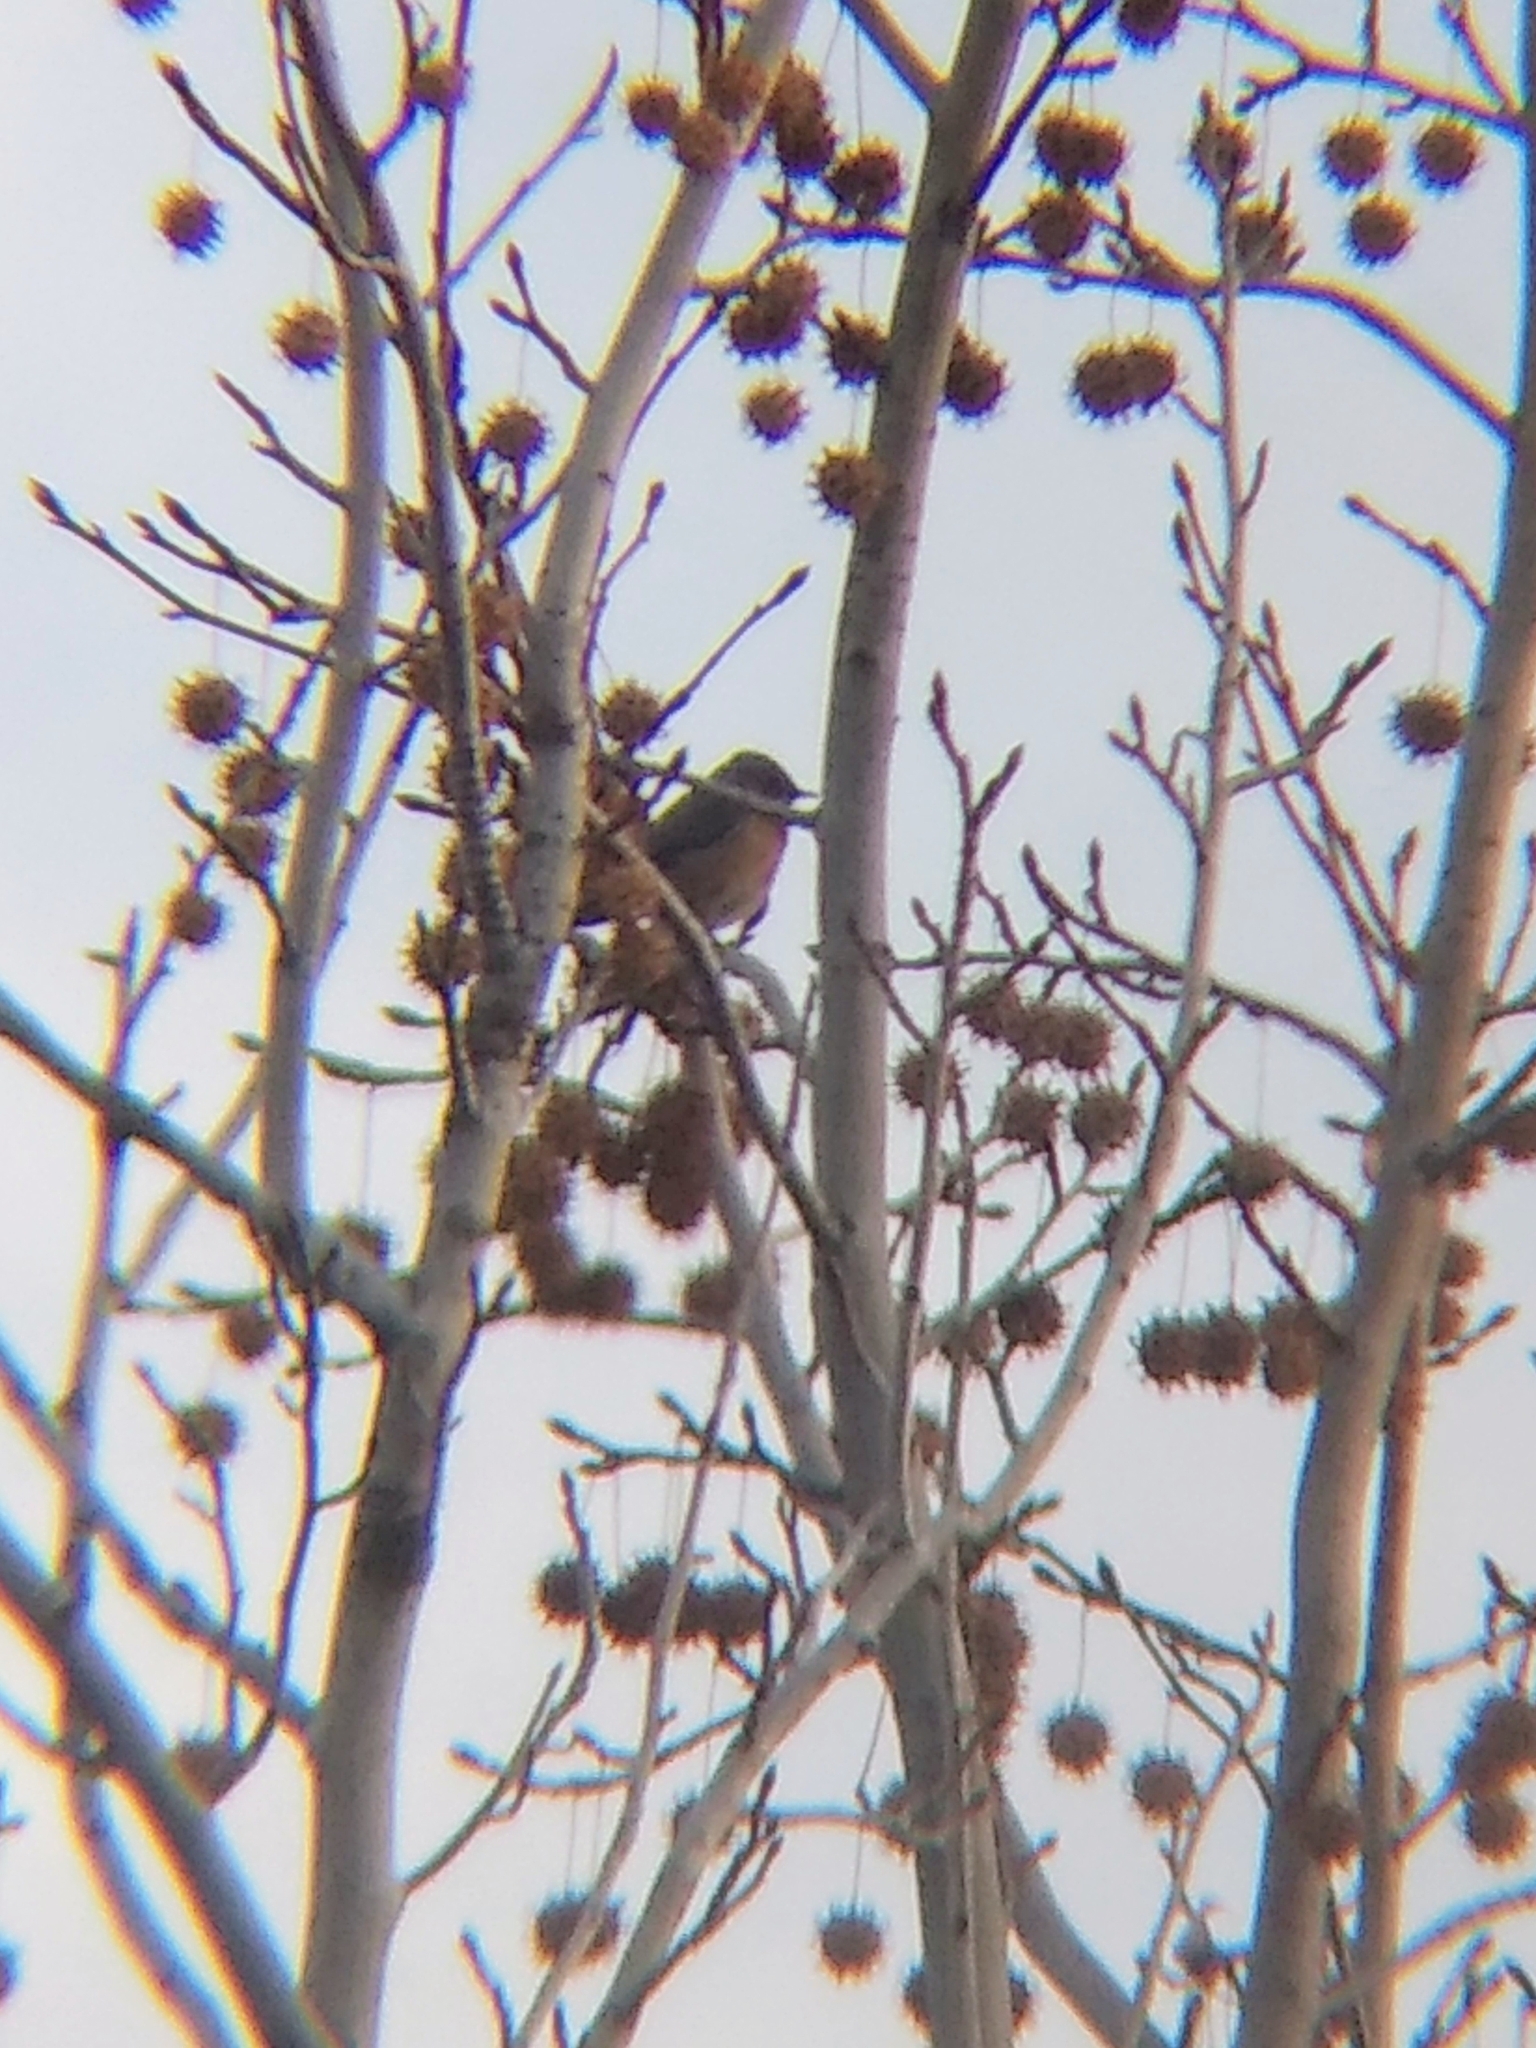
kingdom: Animalia
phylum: Chordata
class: Aves
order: Passeriformes
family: Turdidae
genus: Sialia
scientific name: Sialia mexicana
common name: Western bluebird
